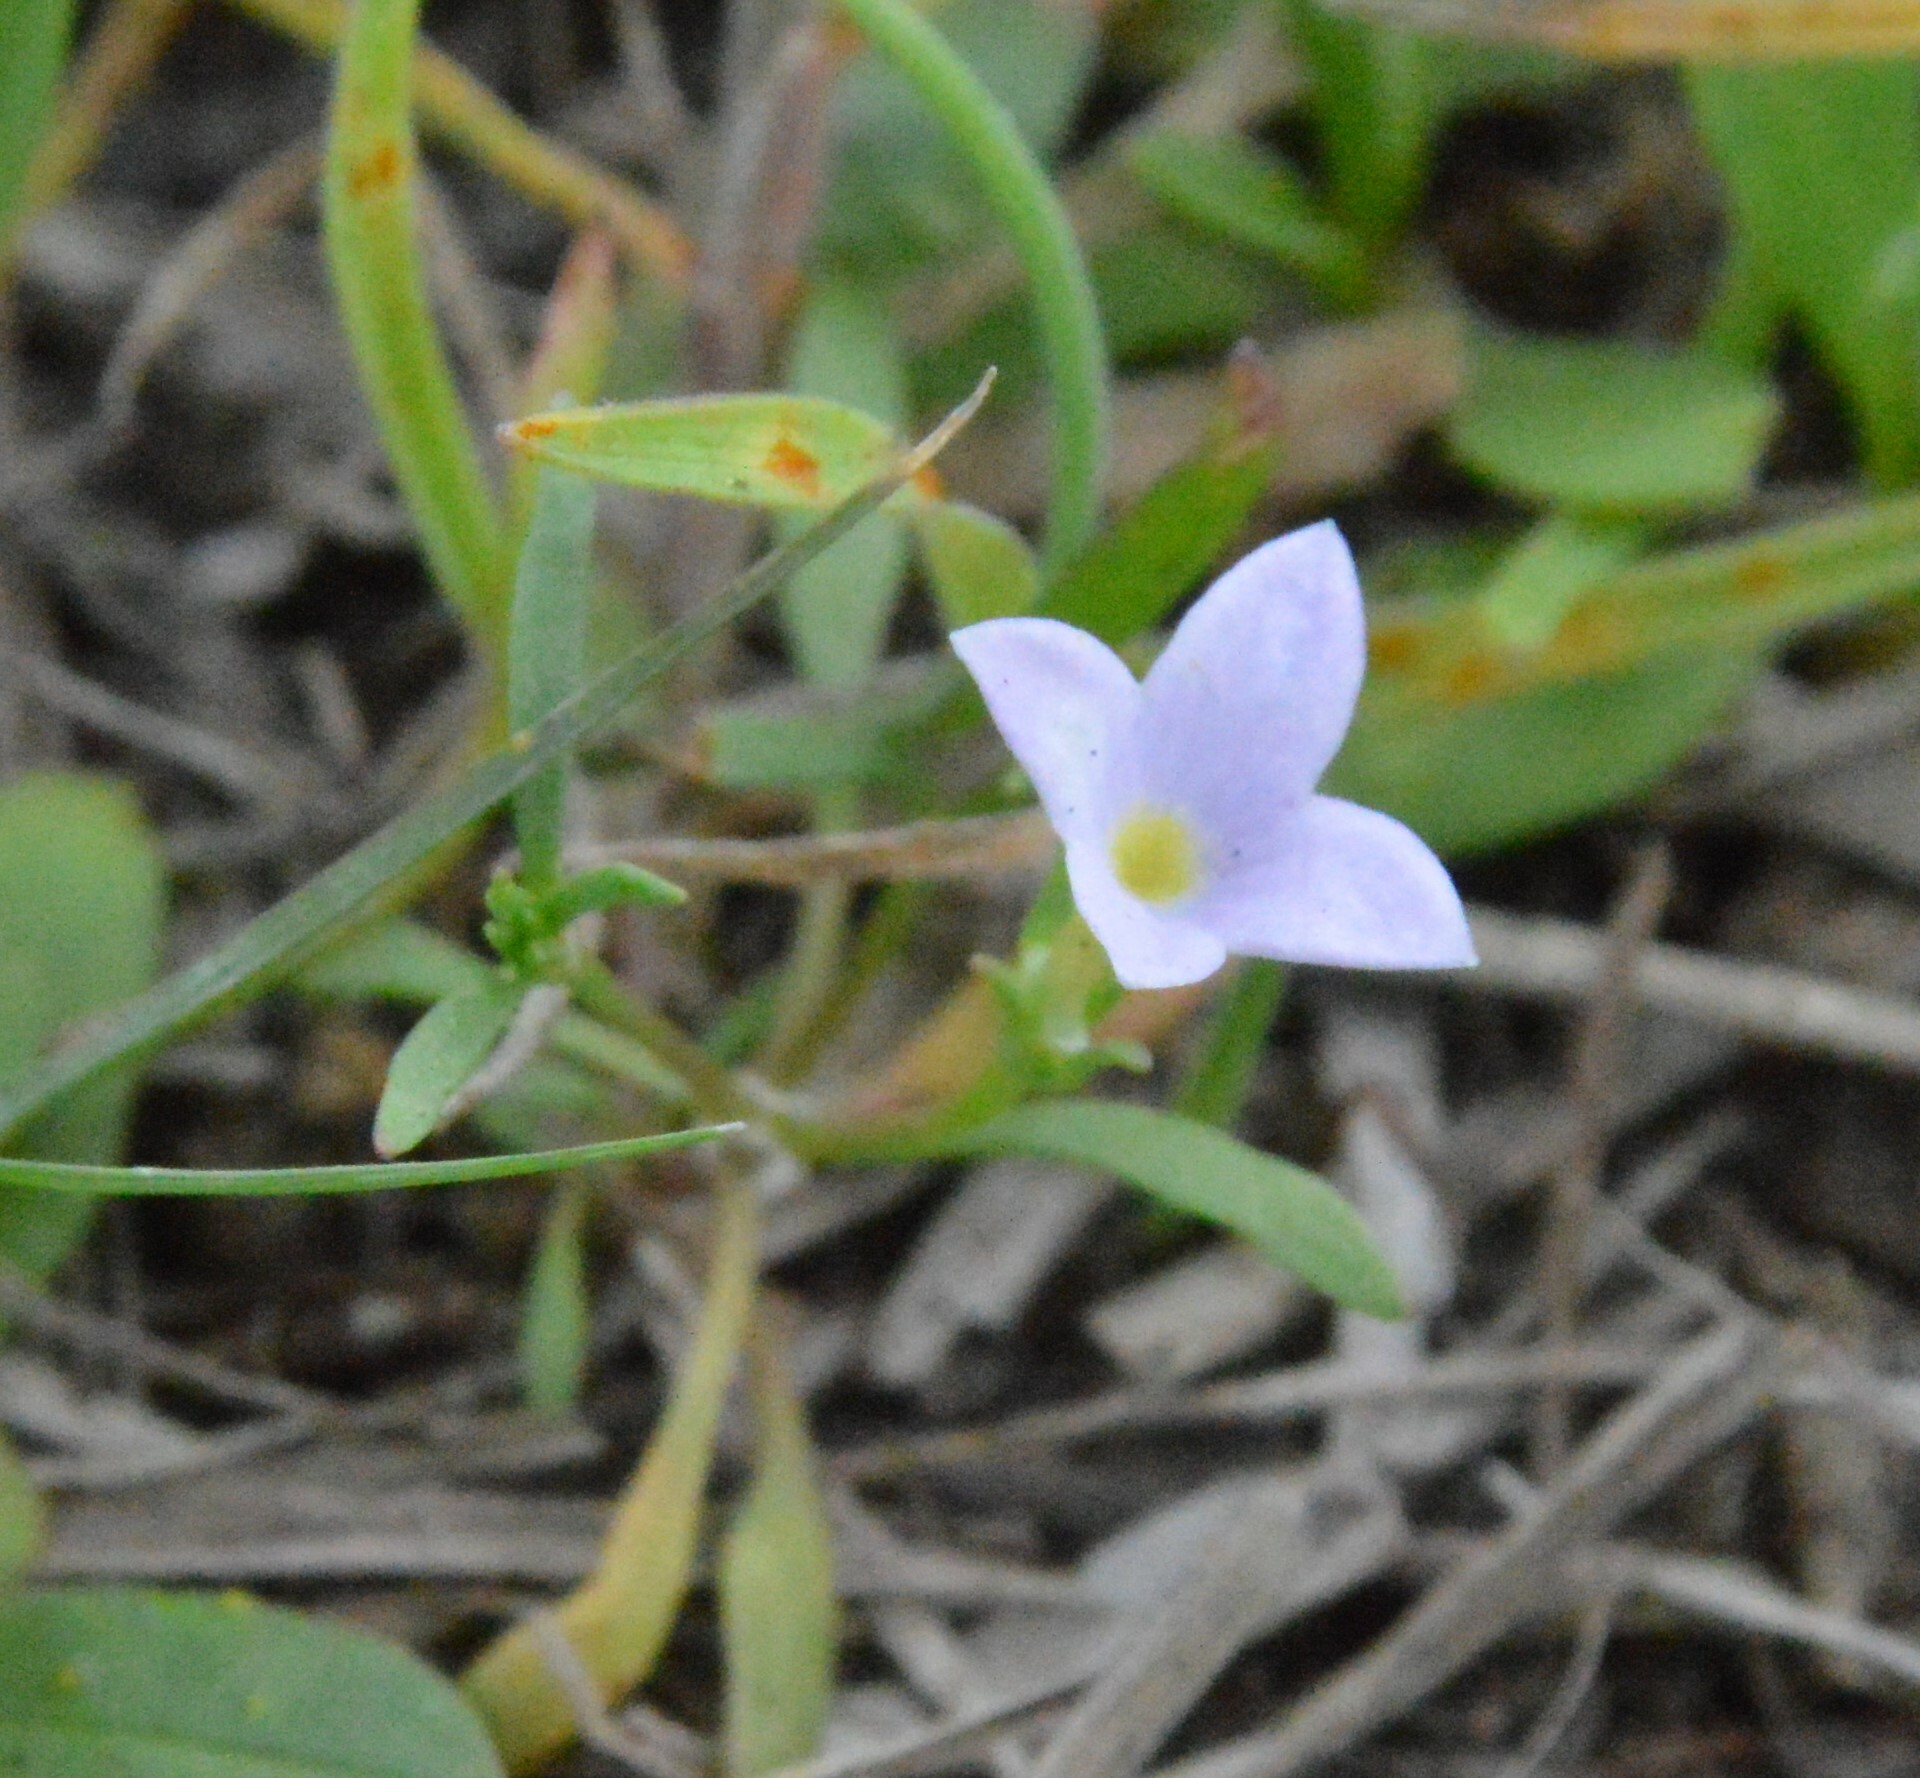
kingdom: Plantae
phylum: Tracheophyta
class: Magnoliopsida
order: Gentianales
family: Rubiaceae
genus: Houstonia
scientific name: Houstonia rosea
